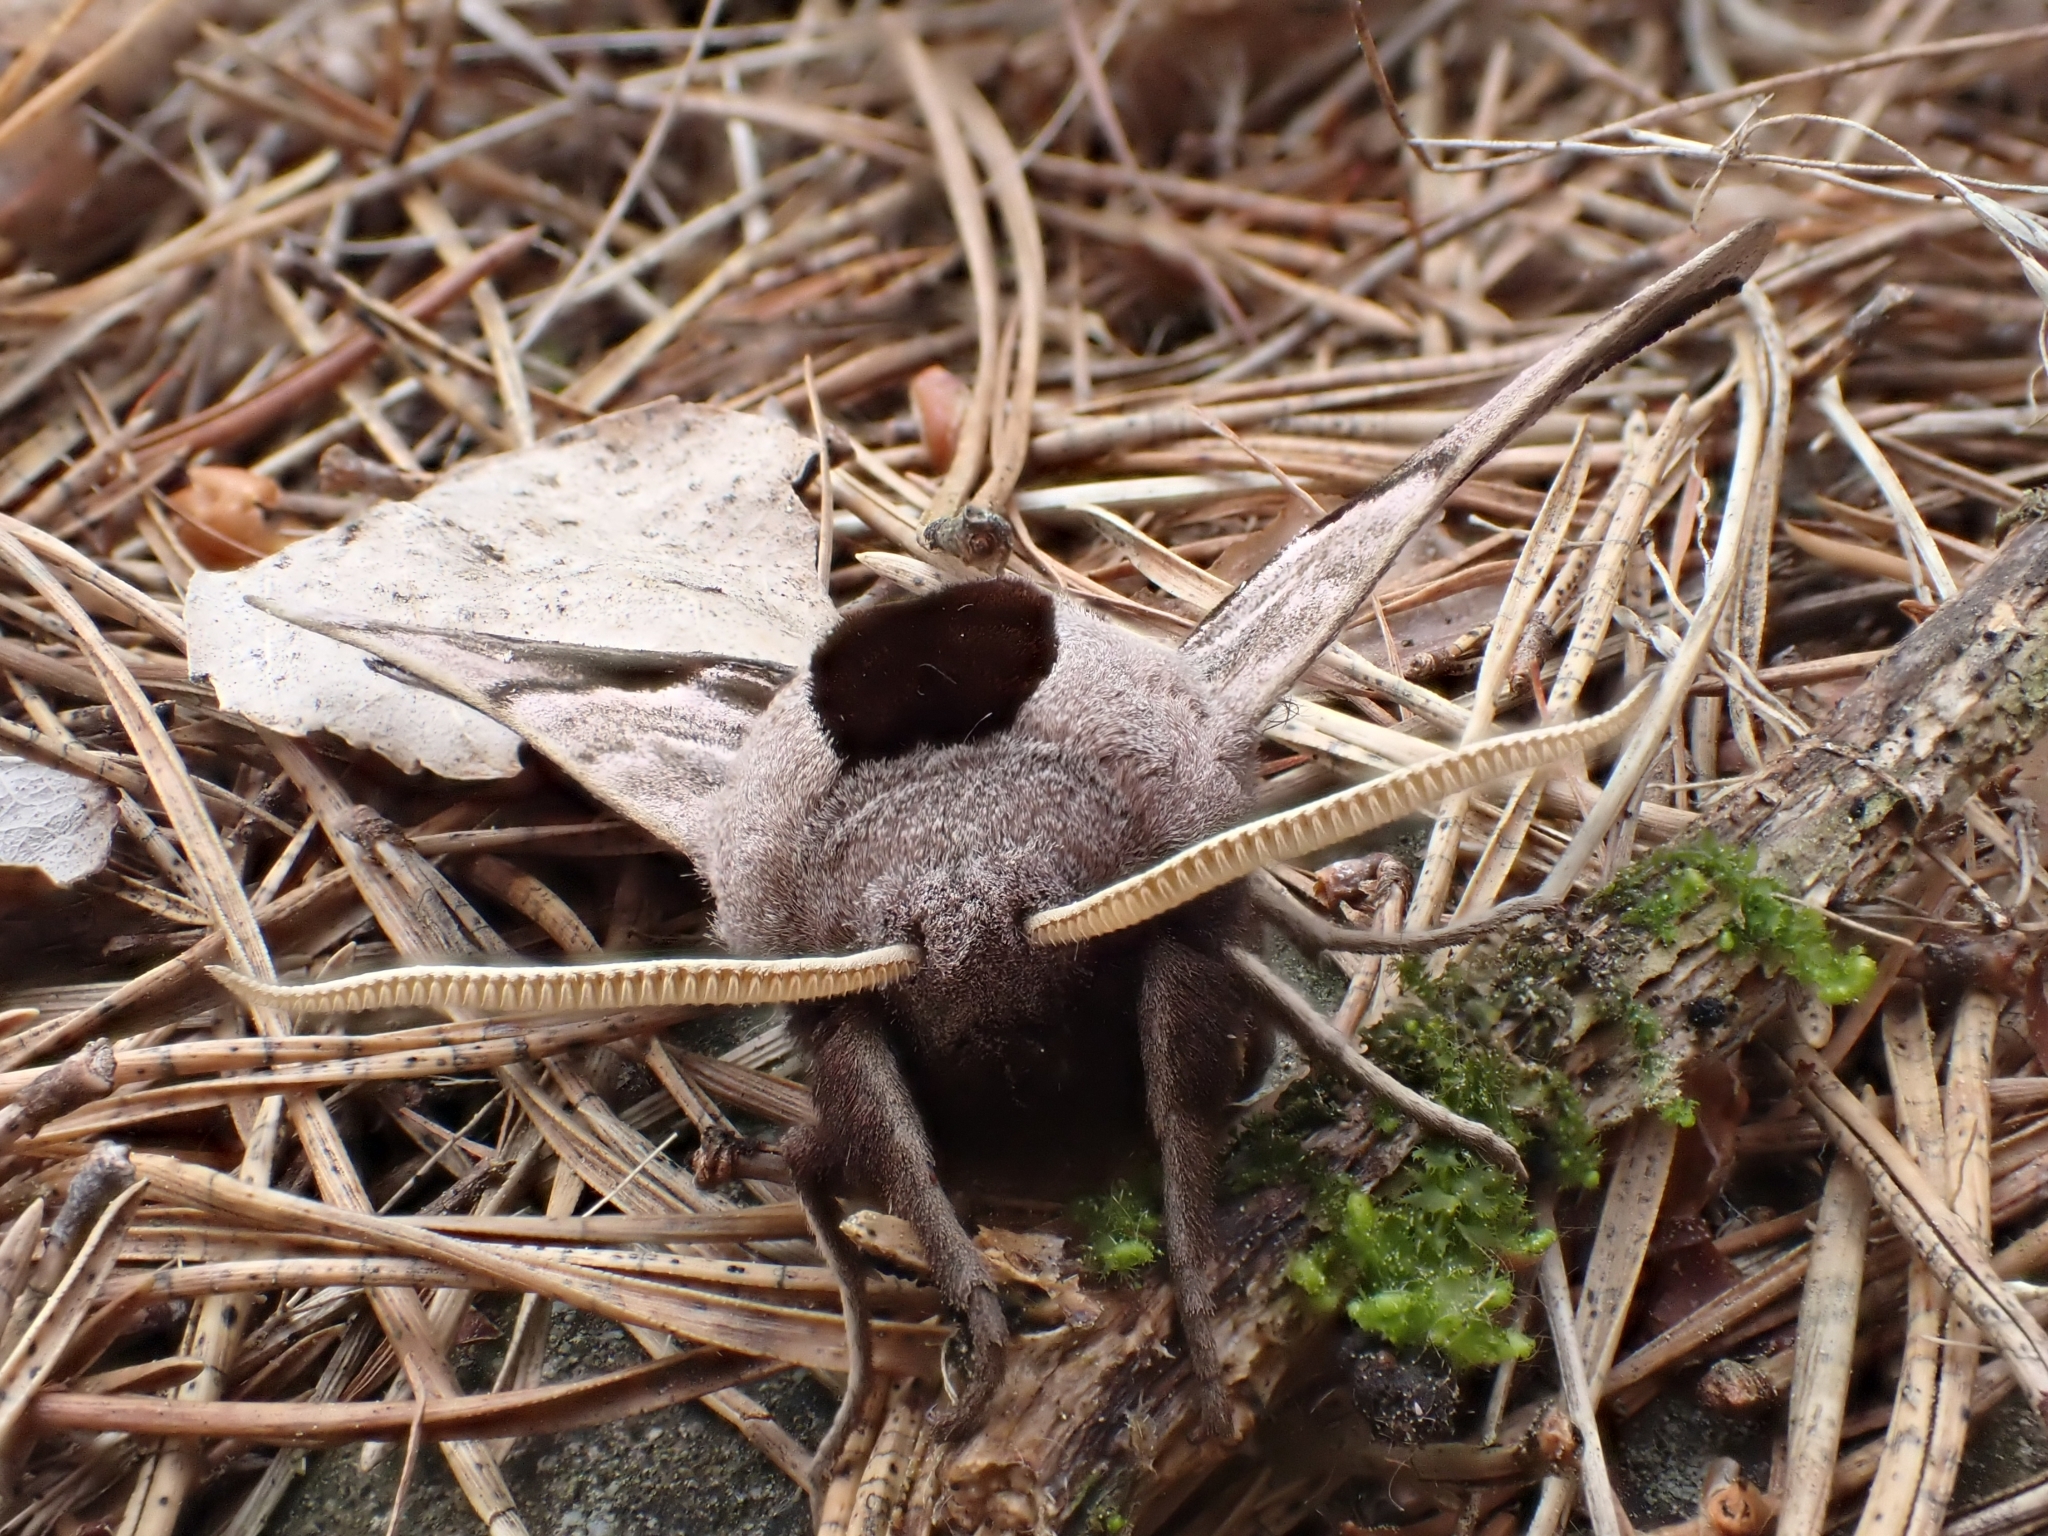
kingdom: Animalia
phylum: Arthropoda
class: Insecta
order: Lepidoptera
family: Sphingidae
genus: Smerinthus
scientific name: Smerinthus ocellata
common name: Eyed hawk-moth
